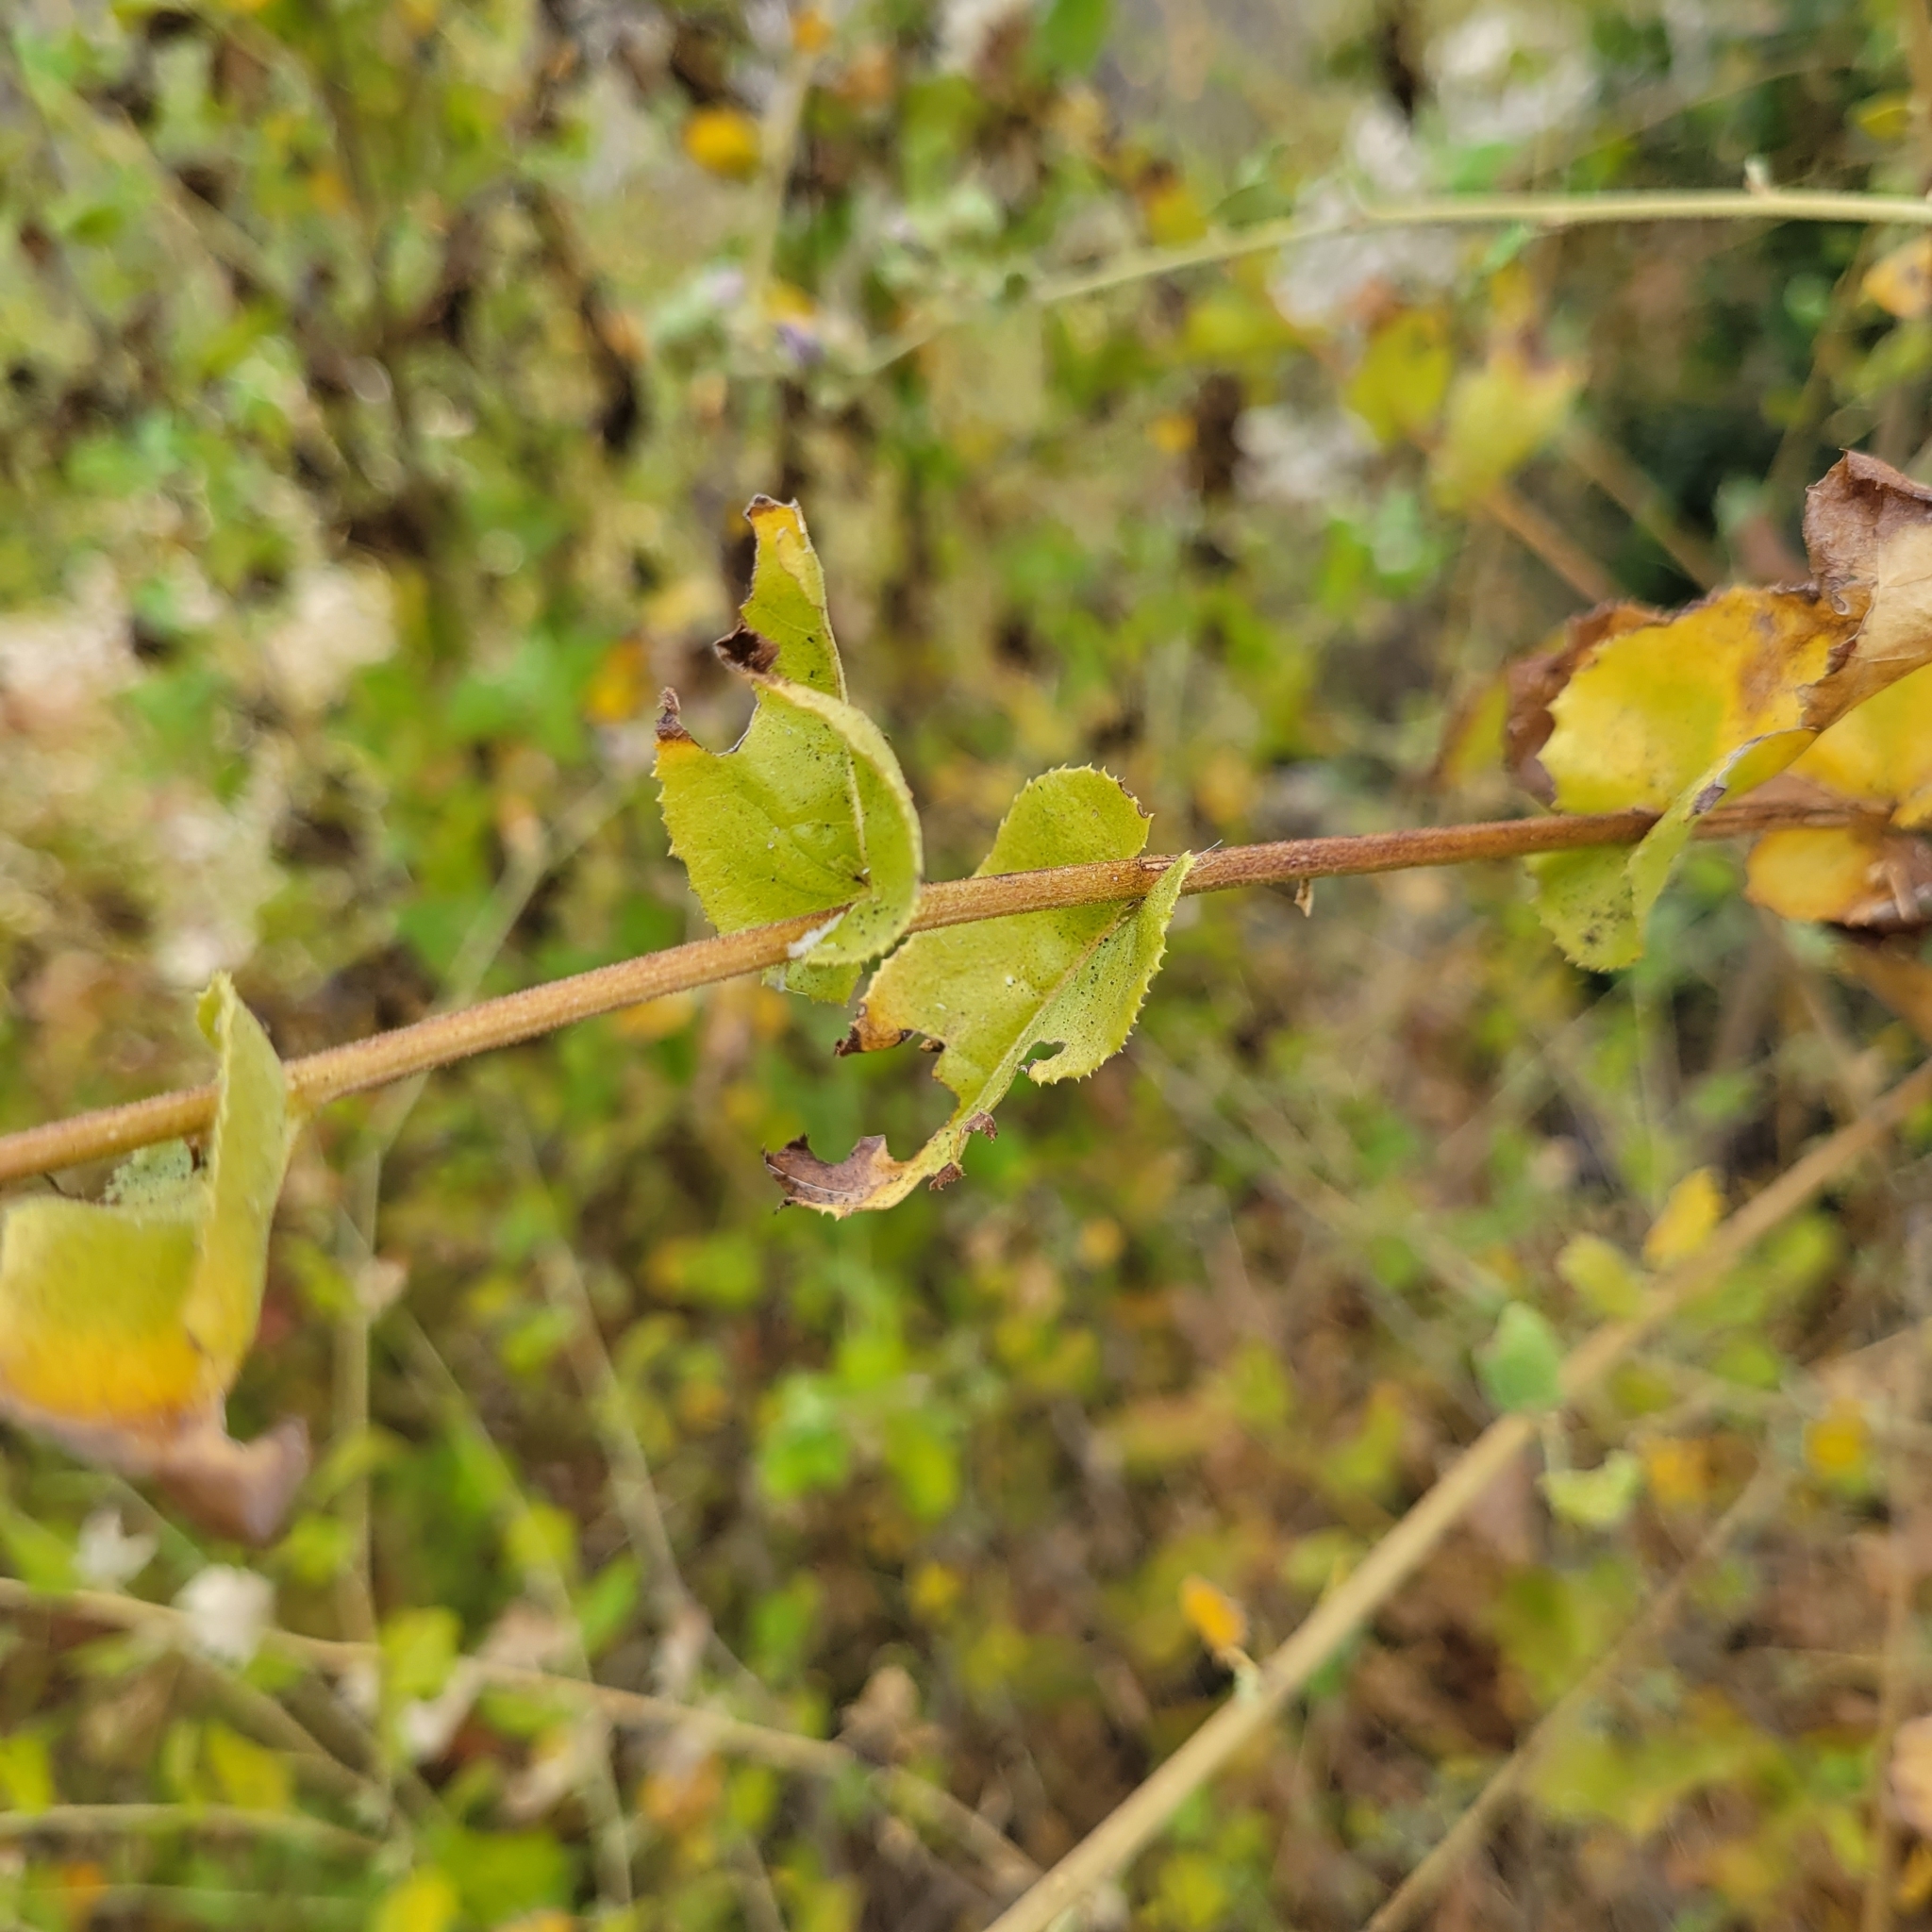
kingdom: Plantae
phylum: Tracheophyta
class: Magnoliopsida
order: Asterales
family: Asteraceae
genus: Acourtia
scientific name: Acourtia microcephala
